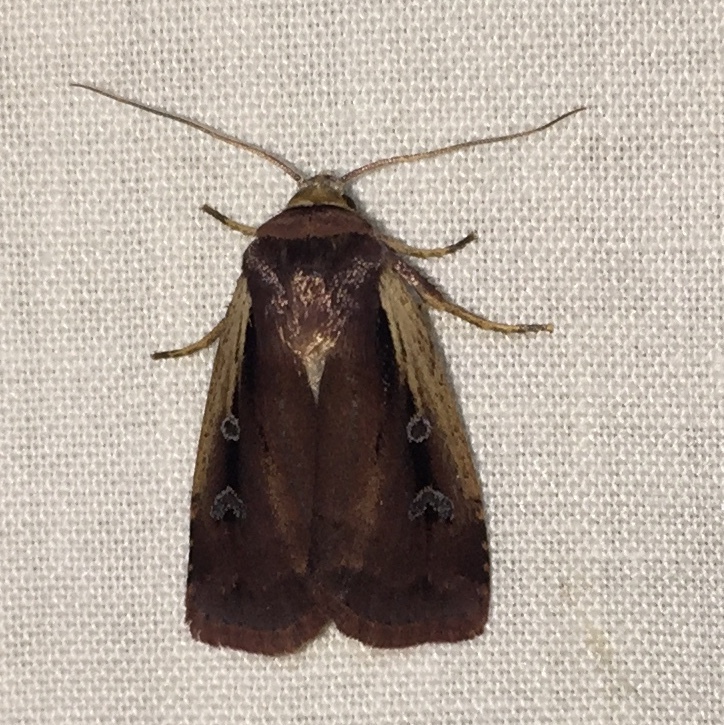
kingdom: Animalia
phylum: Arthropoda
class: Insecta
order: Lepidoptera
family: Noctuidae
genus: Ochropleura
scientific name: Ochropleura implecta
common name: Flame-shouldered dart
